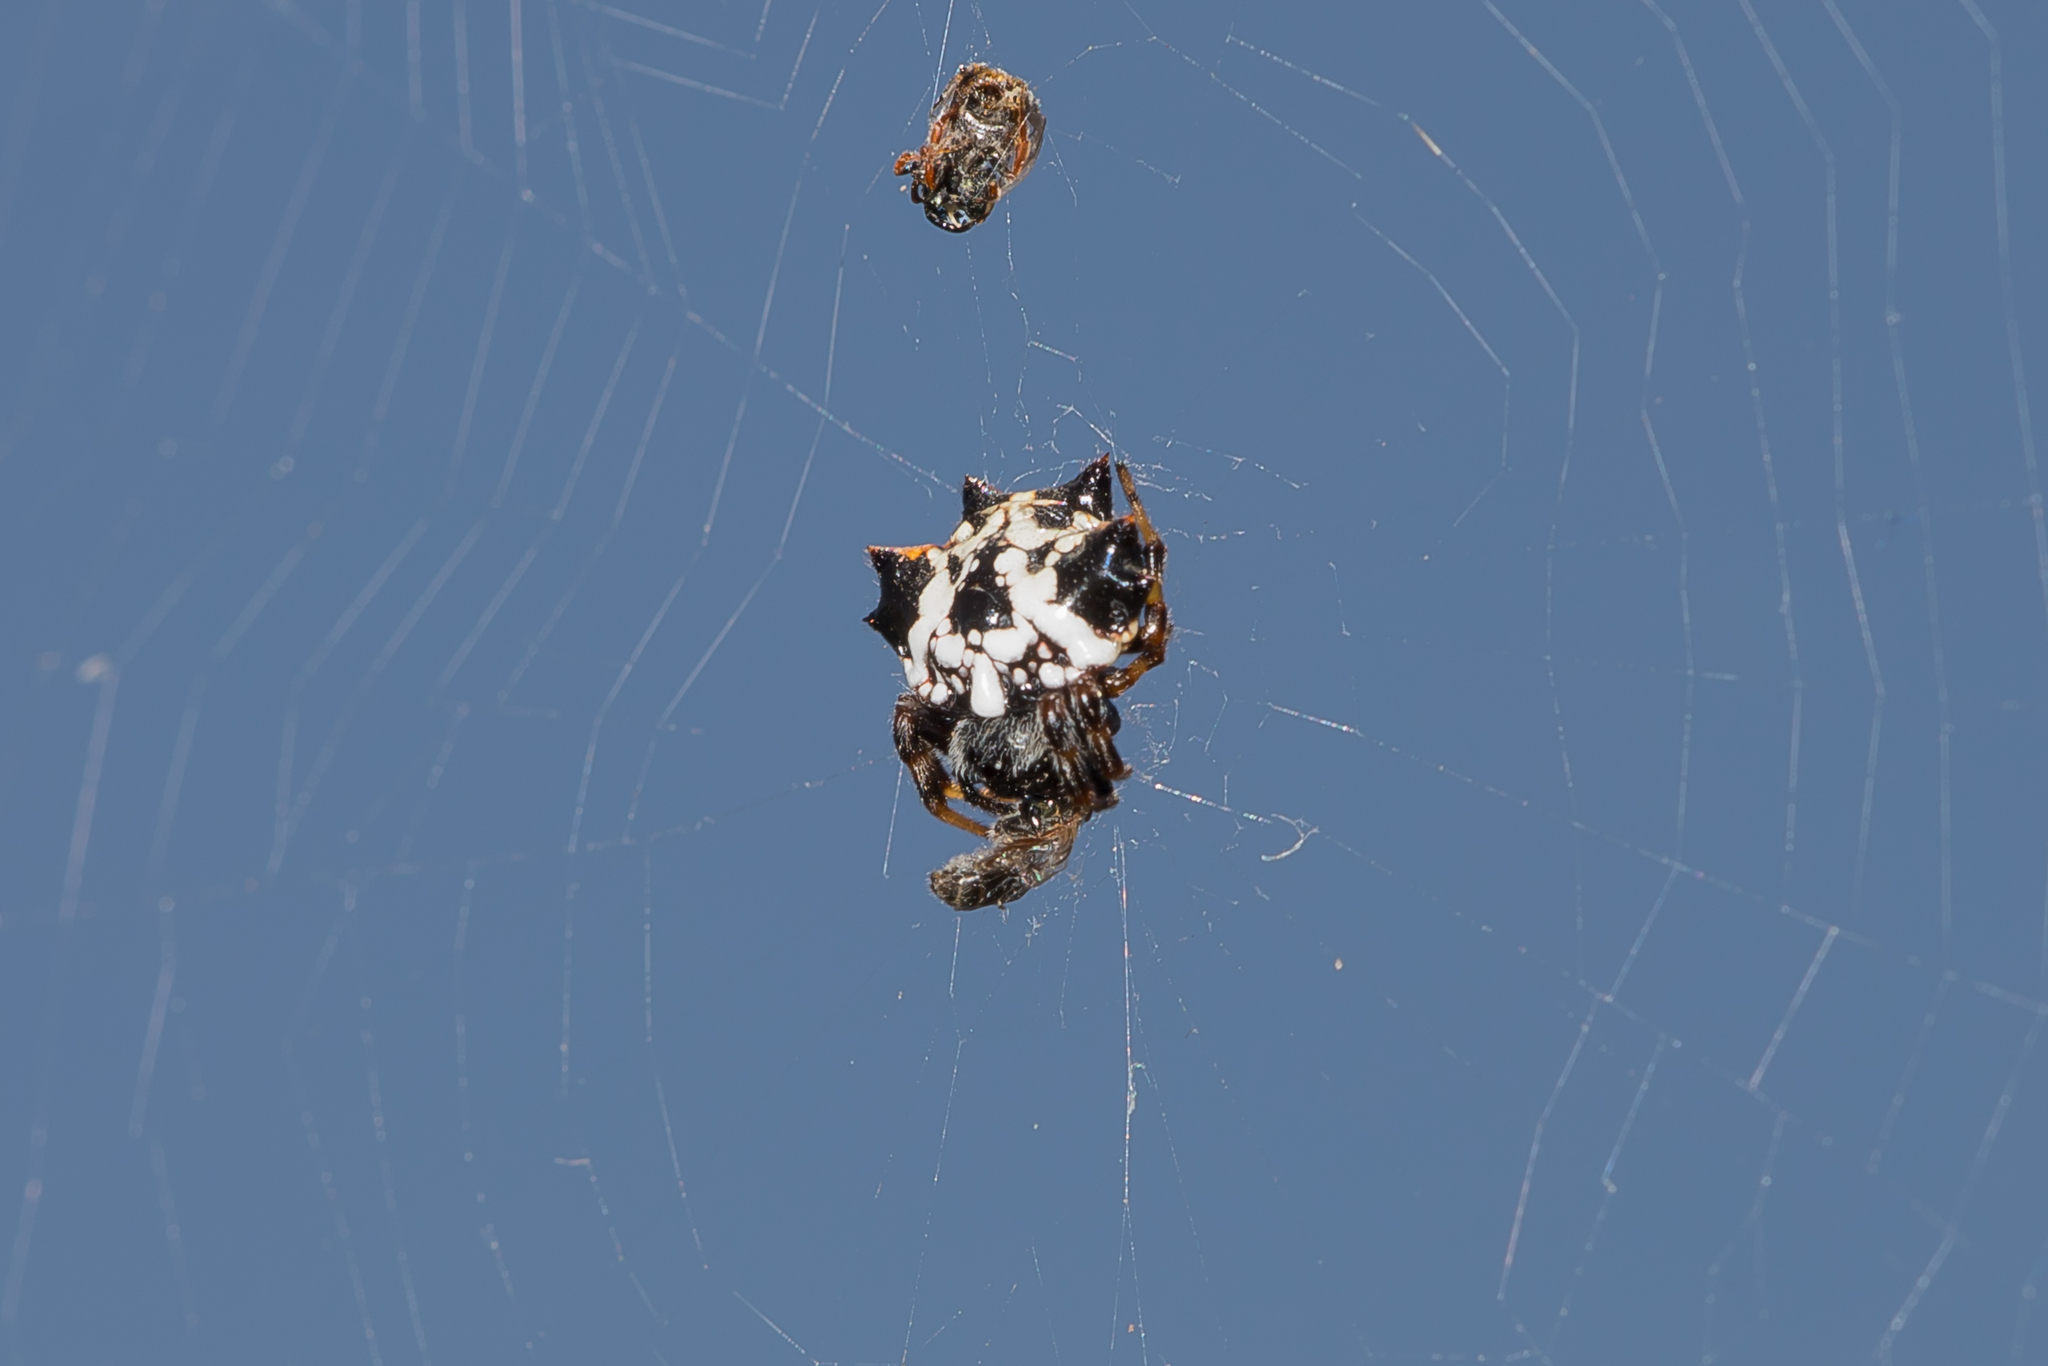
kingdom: Animalia
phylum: Arthropoda
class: Arachnida
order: Araneae
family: Araneidae
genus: Austracantha
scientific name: Austracantha minax
